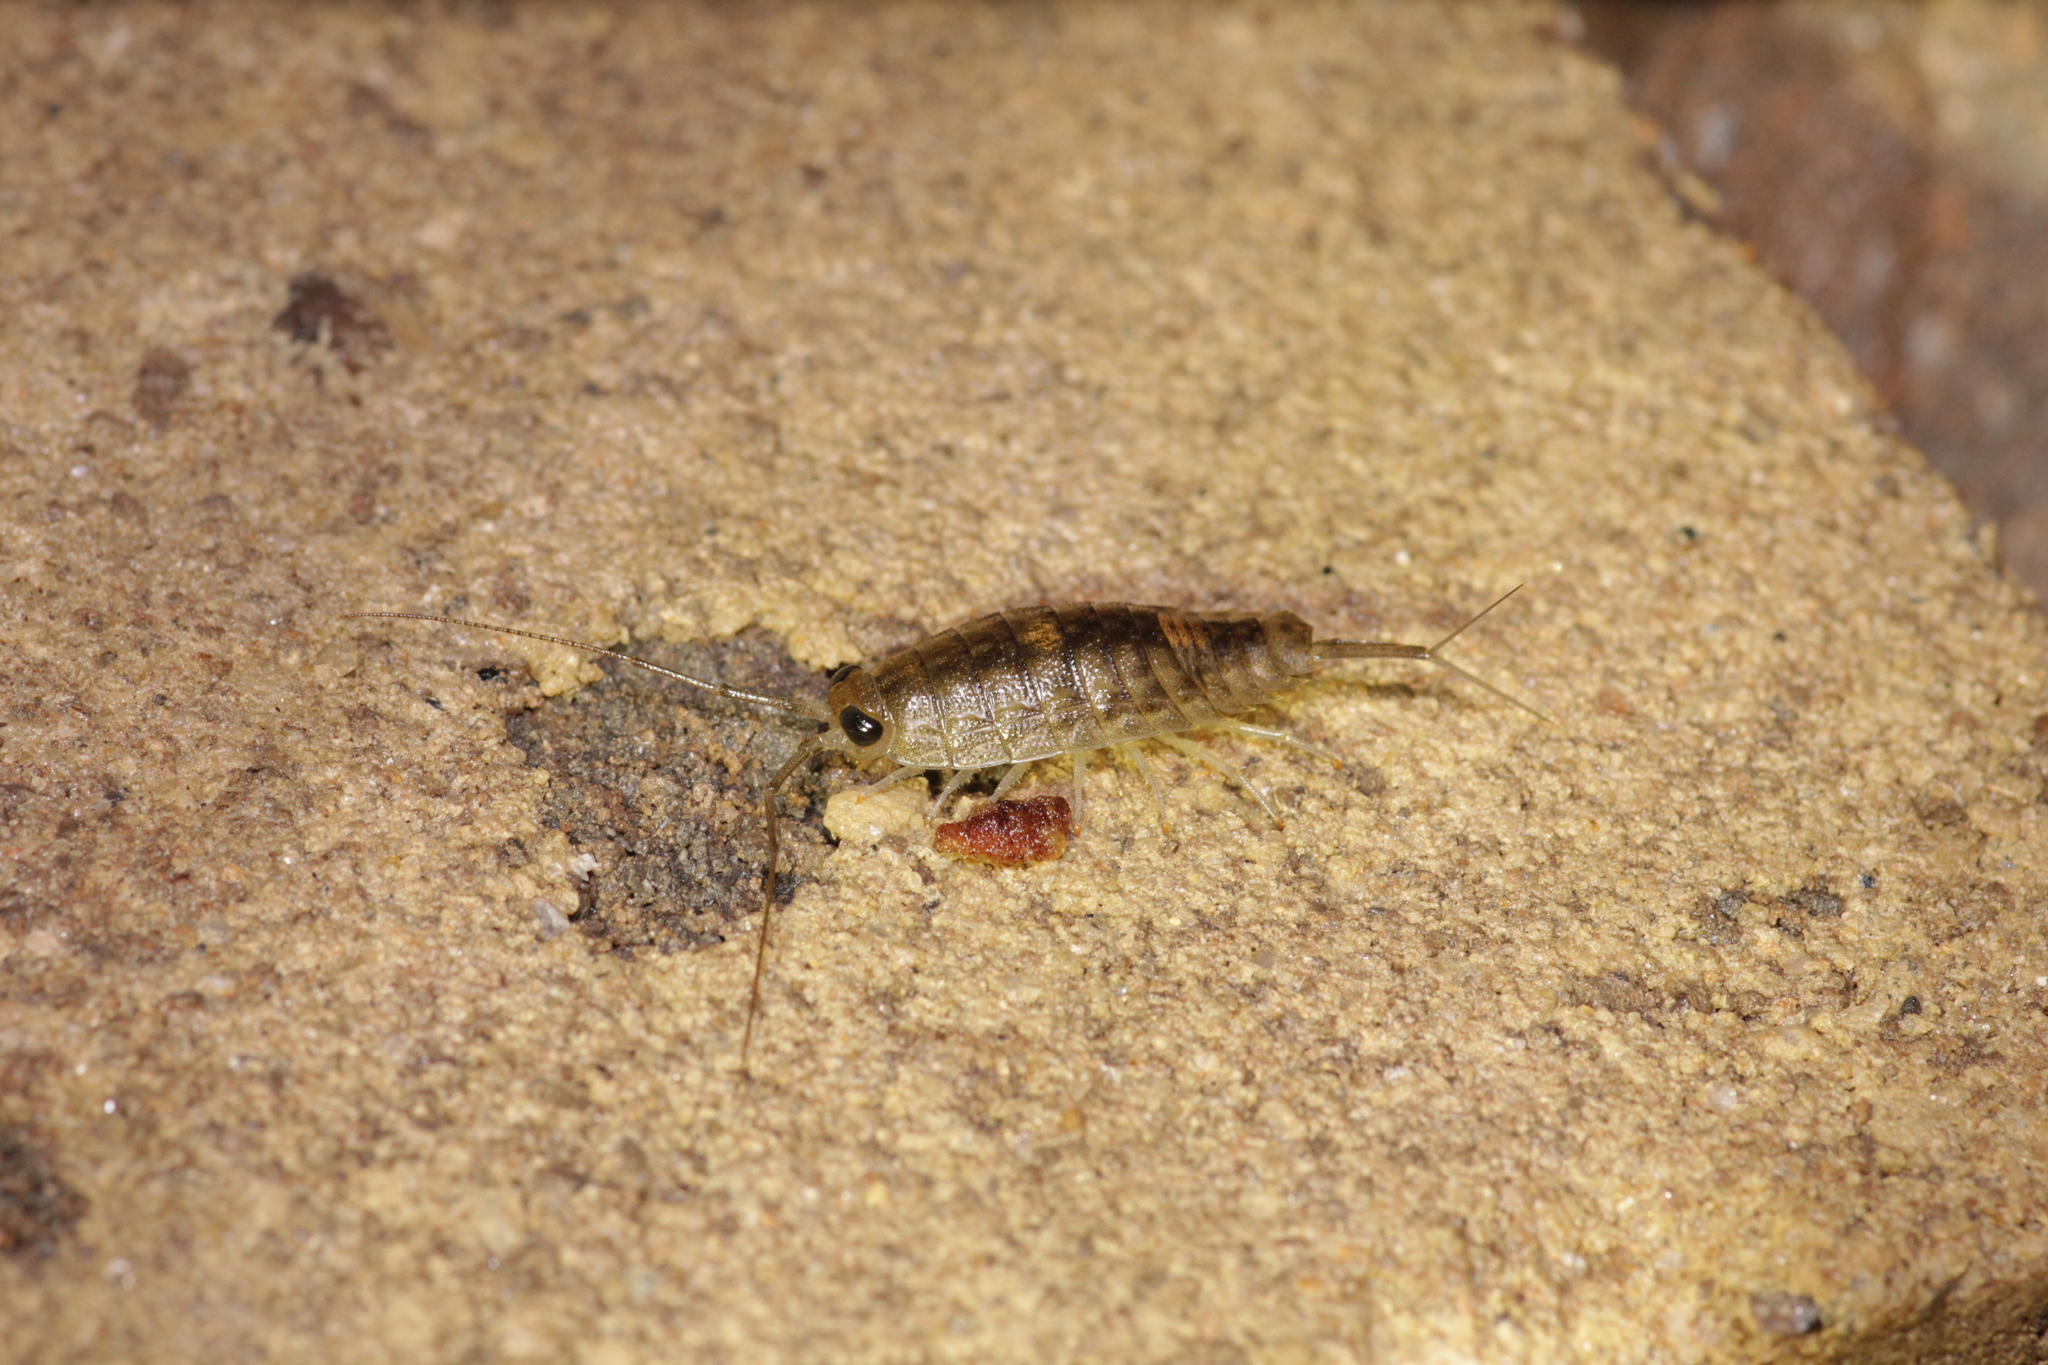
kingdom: Animalia
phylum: Arthropoda
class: Malacostraca
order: Isopoda
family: Ligiidae
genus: Ligia
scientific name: Ligia exotica
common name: Wharf roach
